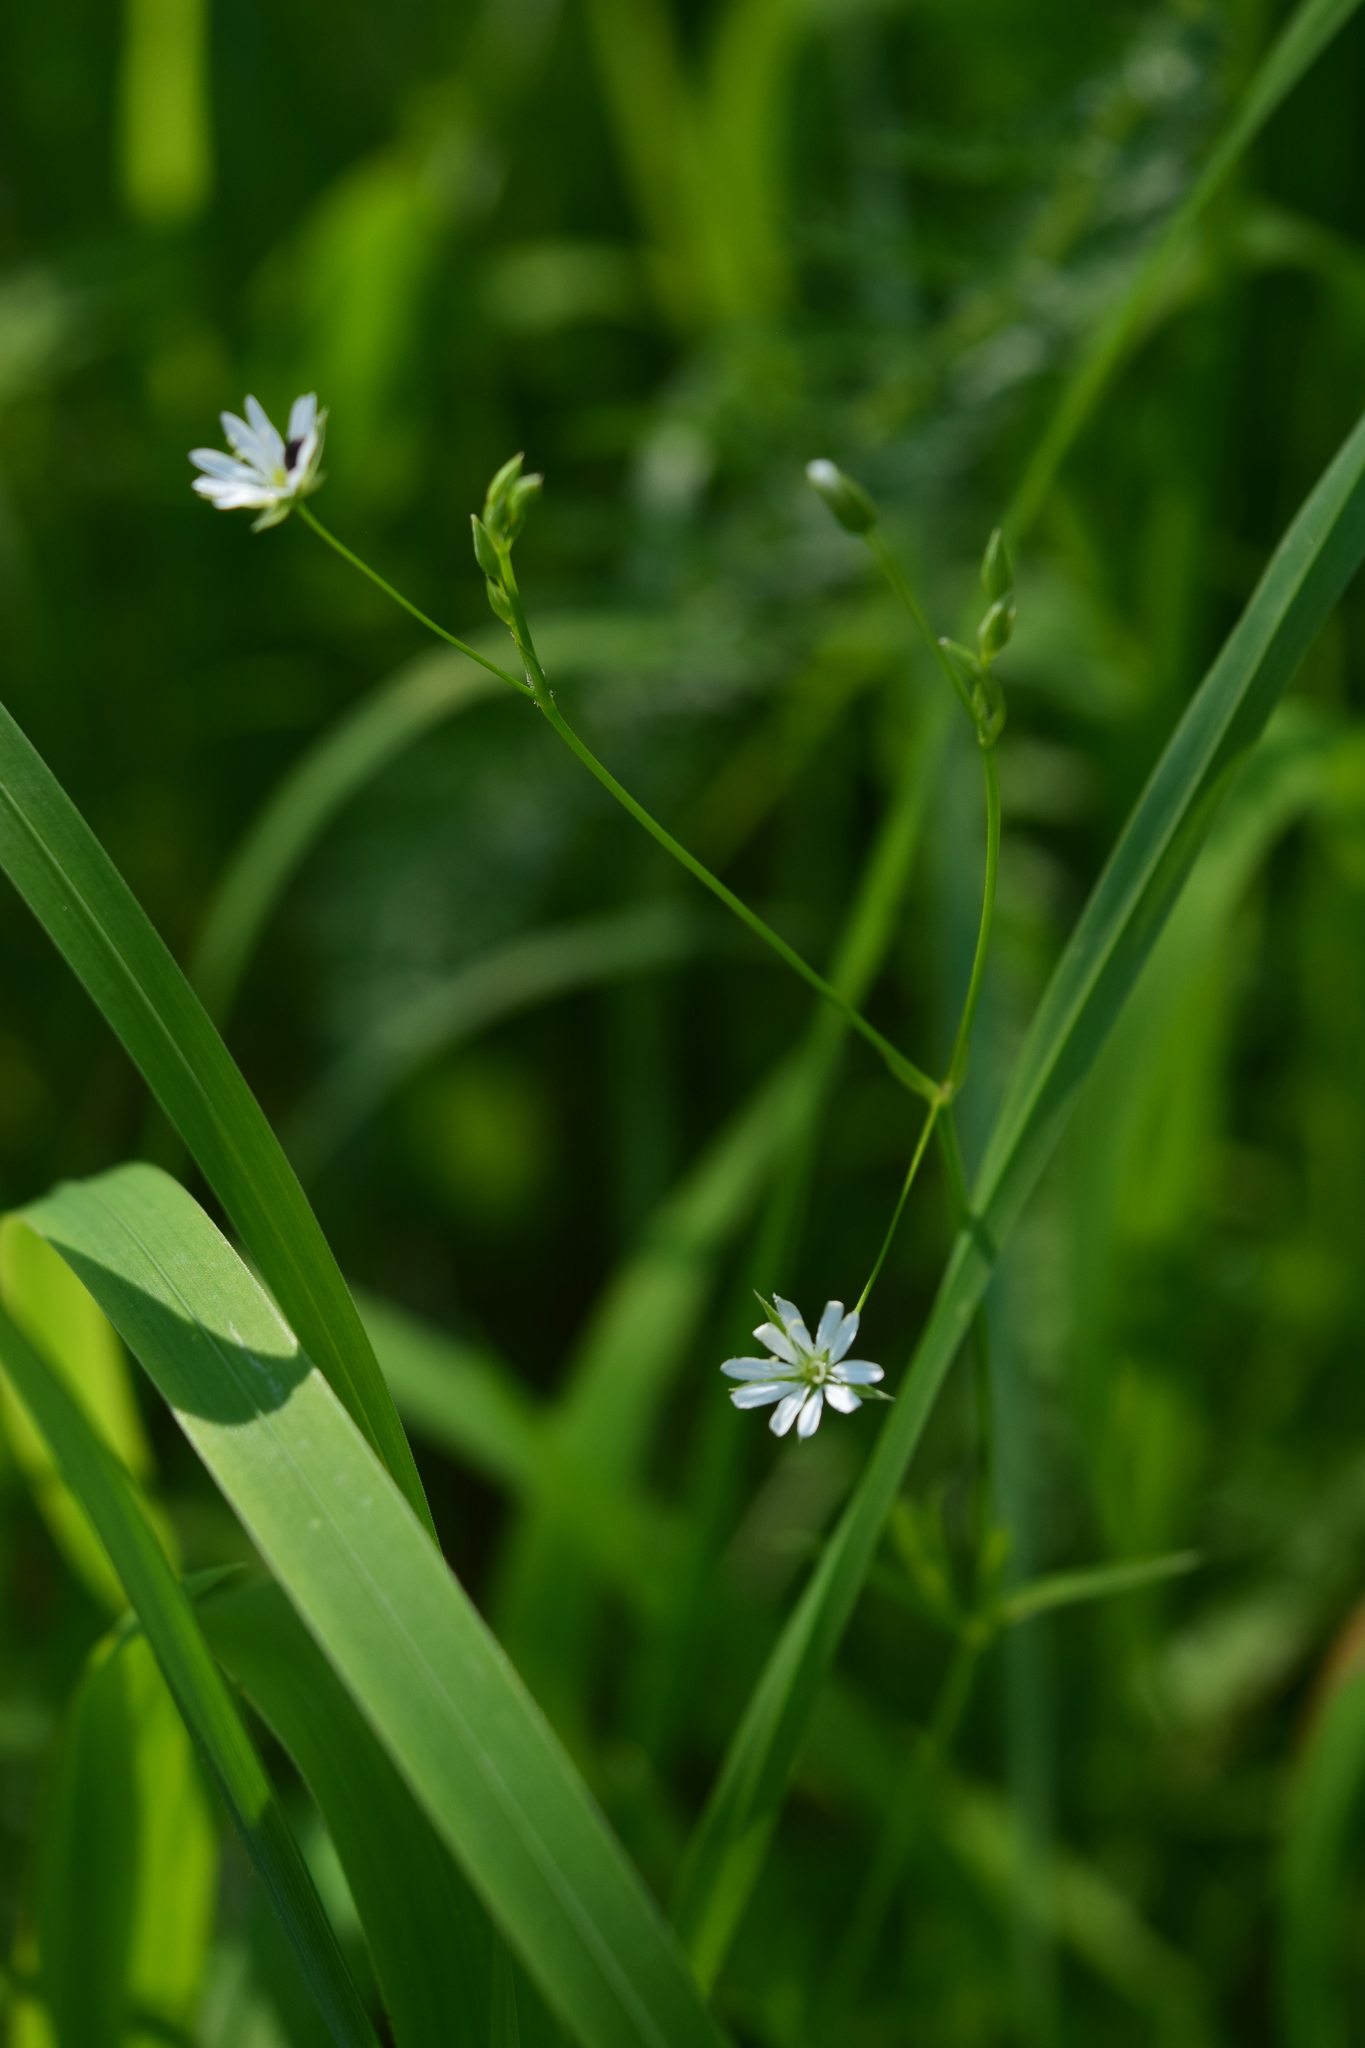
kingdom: Plantae
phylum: Tracheophyta
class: Magnoliopsida
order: Caryophyllales
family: Caryophyllaceae
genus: Stellaria
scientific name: Stellaria graminea
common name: Grass-like starwort
